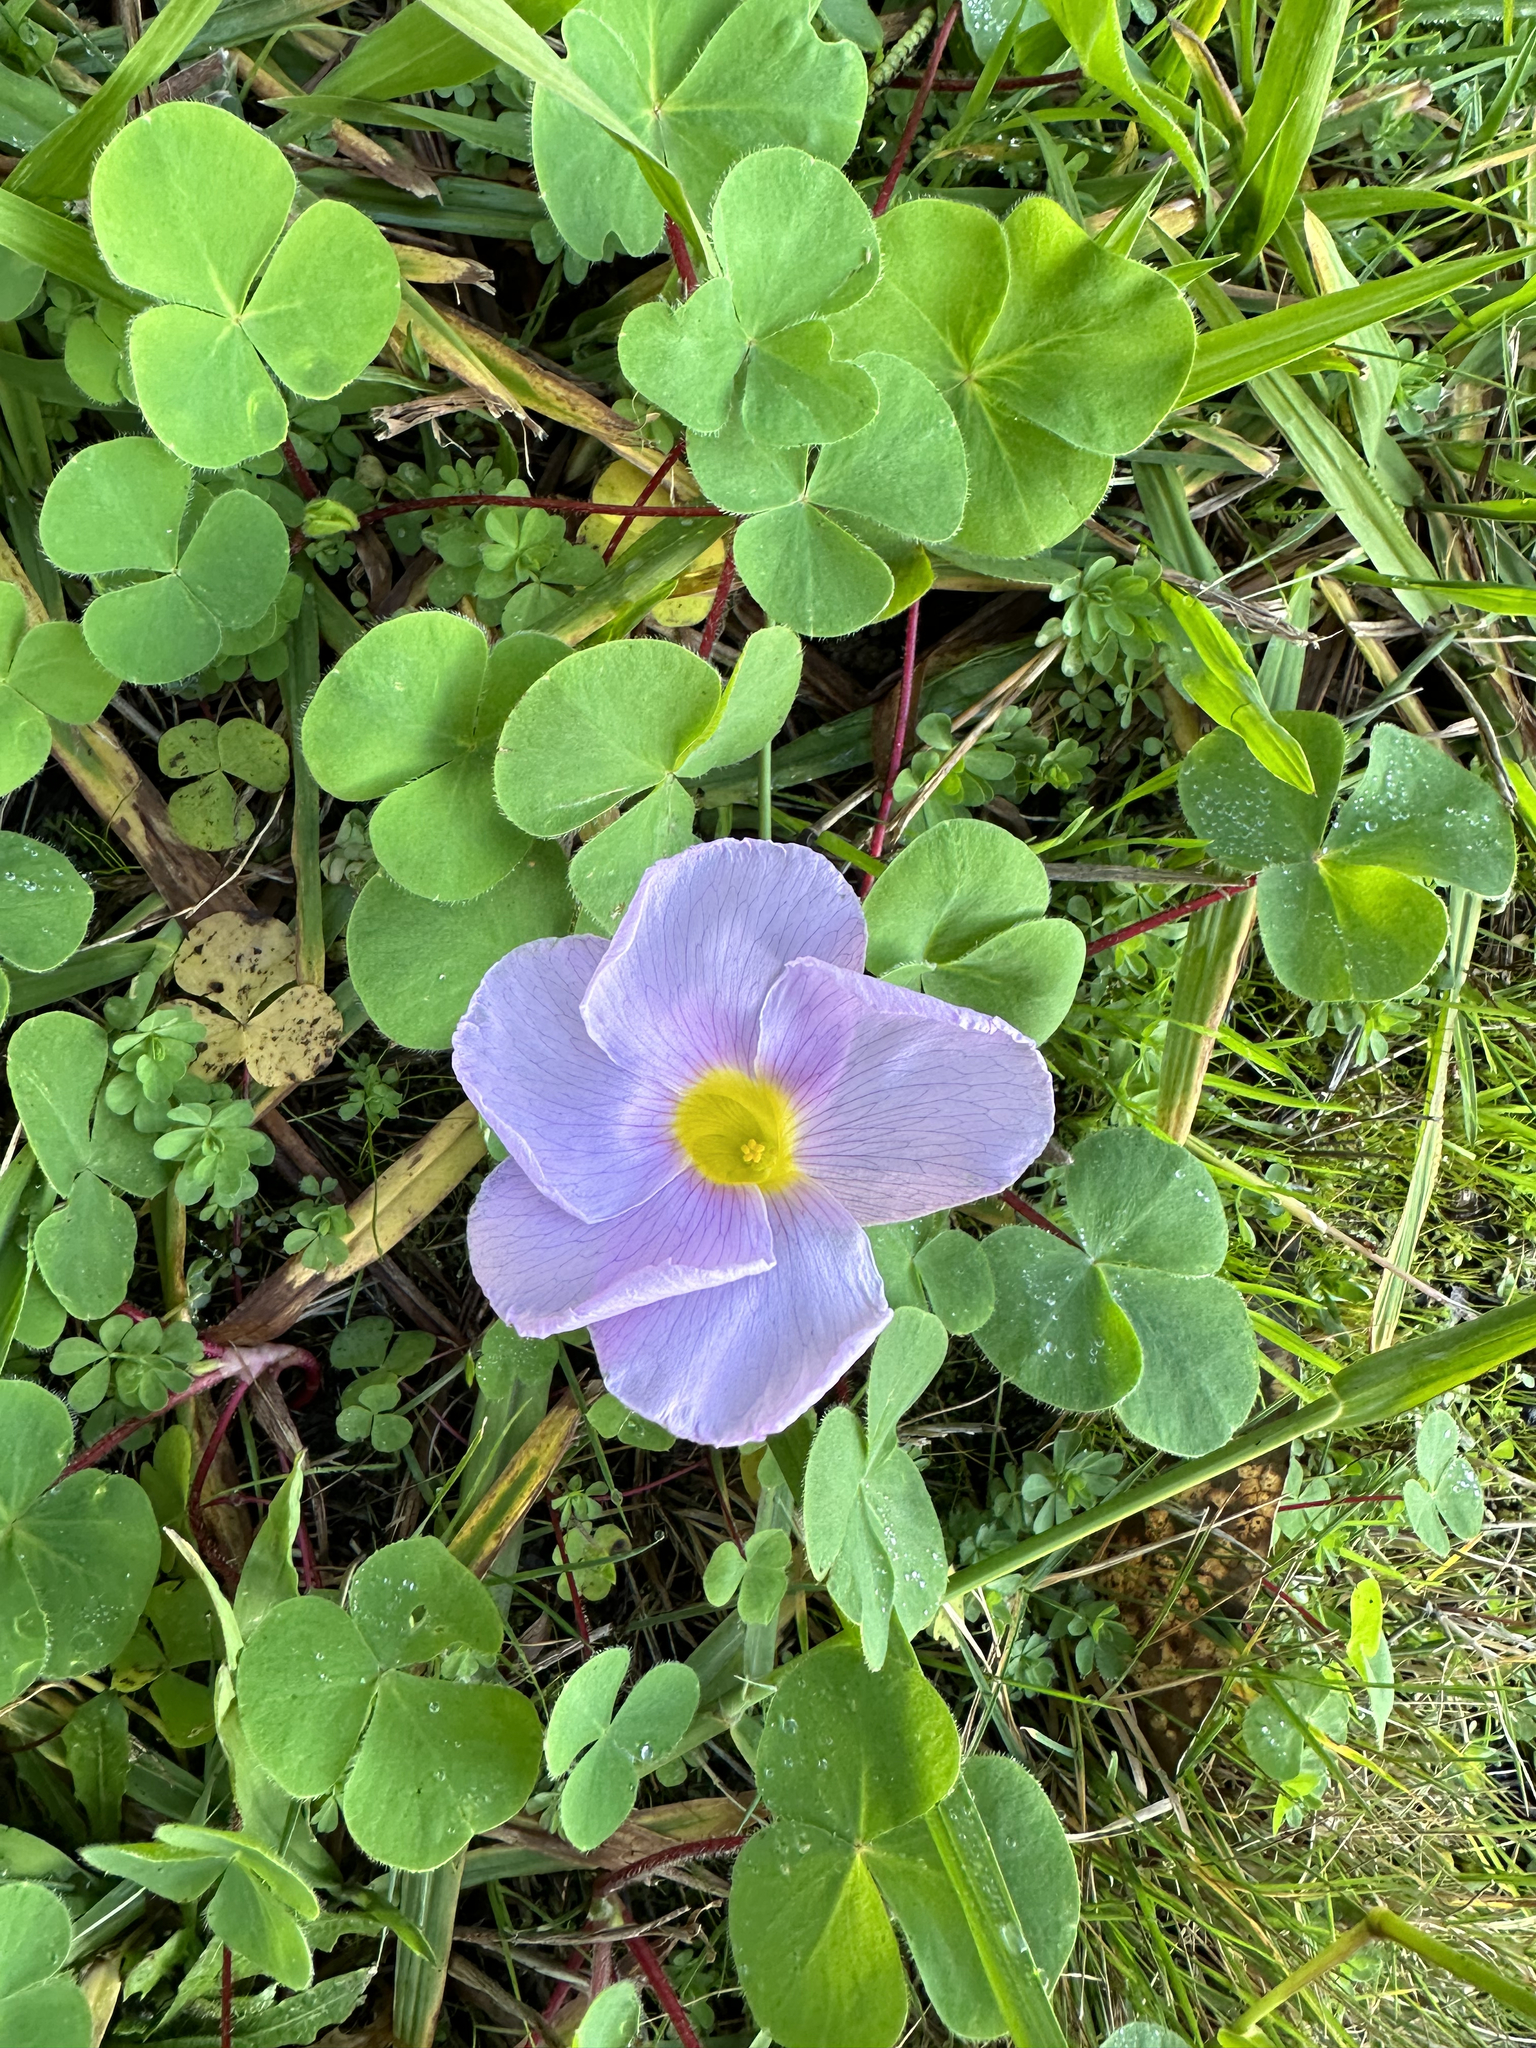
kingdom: Plantae
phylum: Tracheophyta
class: Magnoliopsida
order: Oxalidales
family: Oxalidaceae
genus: Oxalis
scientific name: Oxalis purpurea
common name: Purple woodsorrel
